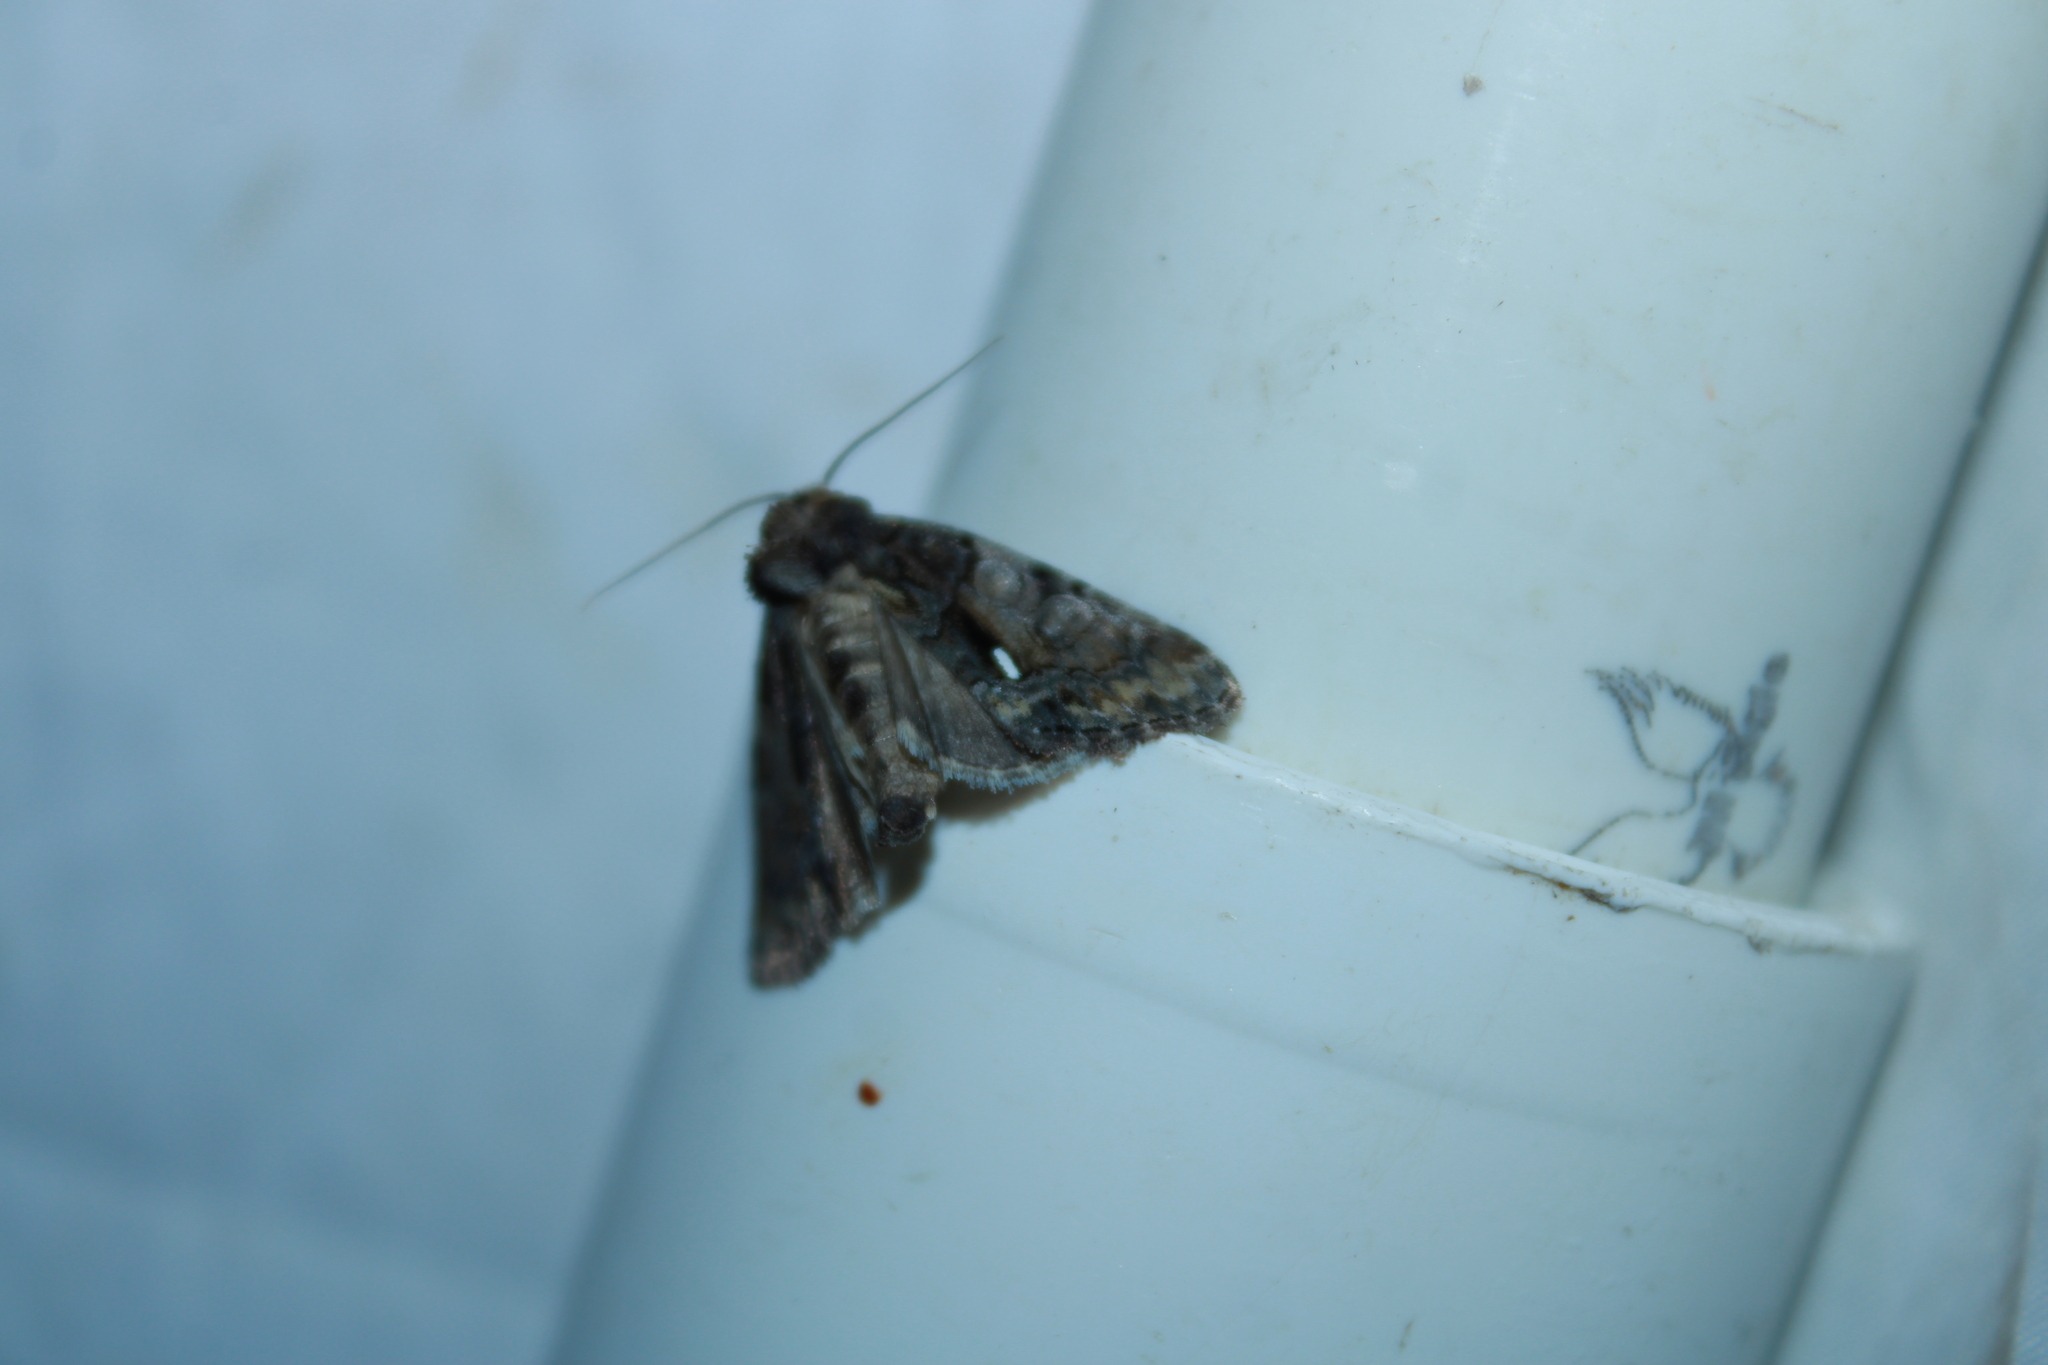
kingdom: Animalia
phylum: Arthropoda
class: Insecta
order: Lepidoptera
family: Noctuidae
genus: Chytonix
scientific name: Chytonix palliatricula
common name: Cloaked marvel
